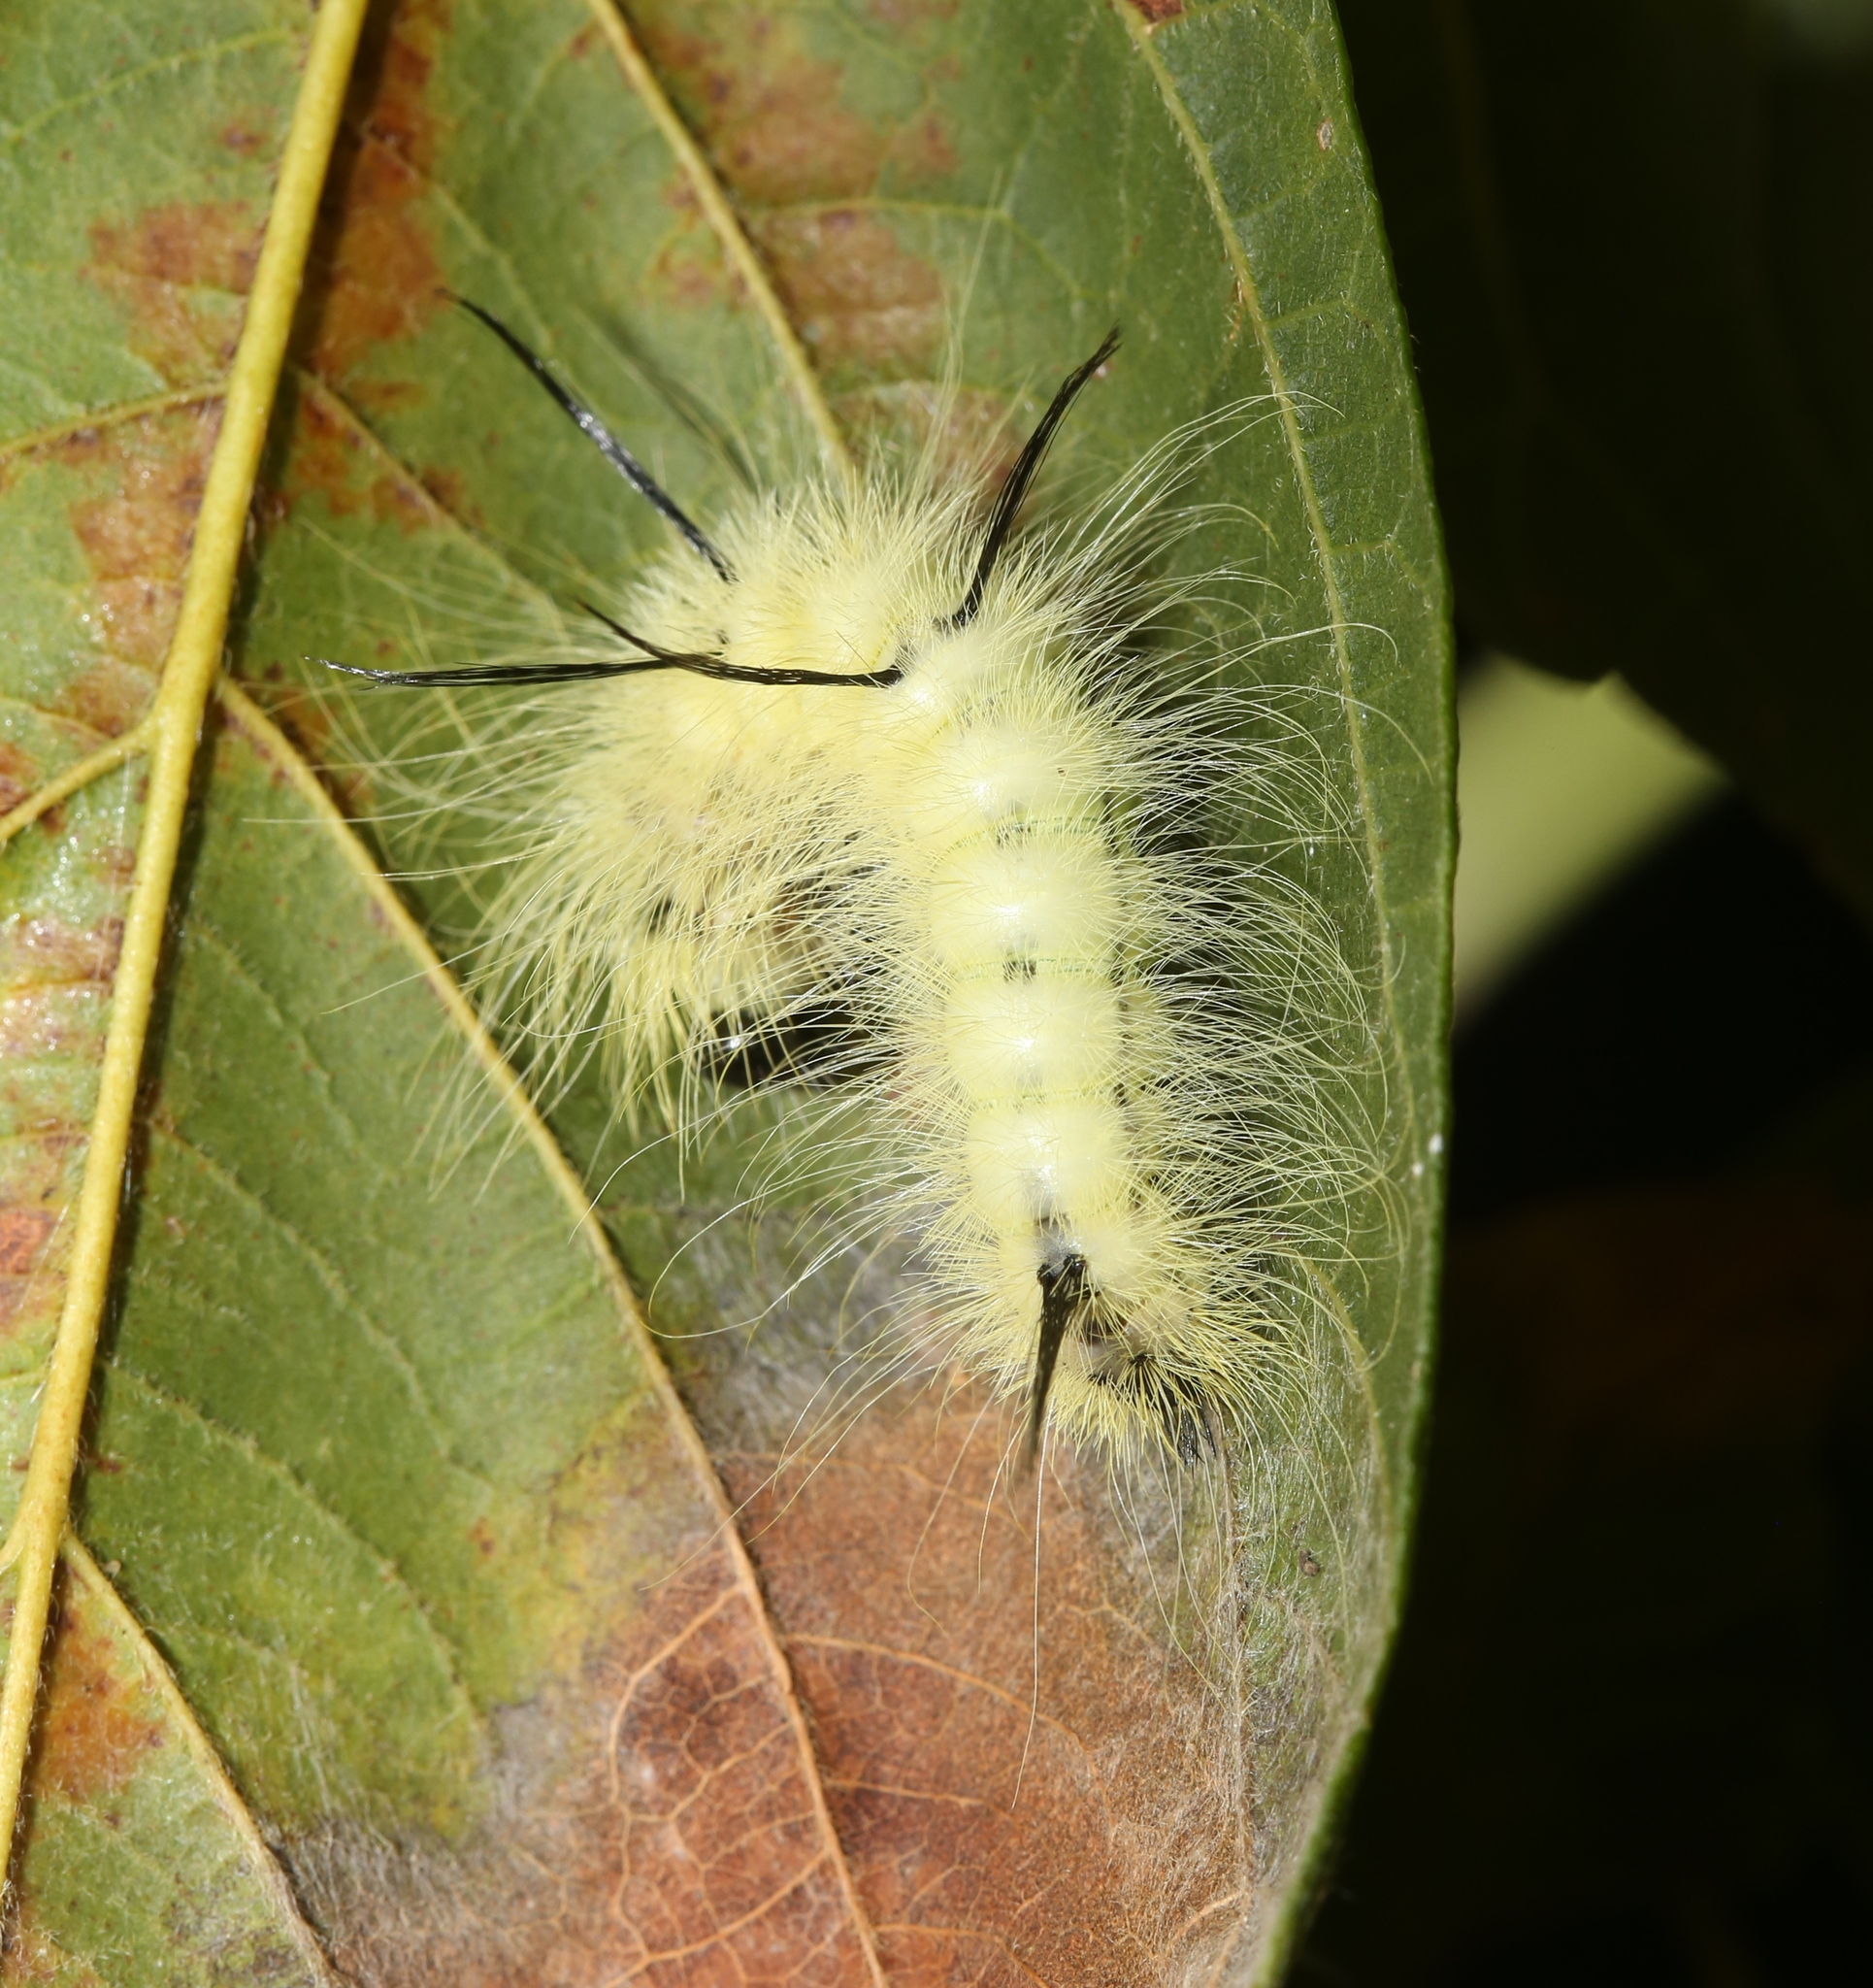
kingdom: Animalia
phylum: Arthropoda
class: Insecta
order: Lepidoptera
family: Noctuidae
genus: Acronicta
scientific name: Acronicta americana
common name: American dagger
